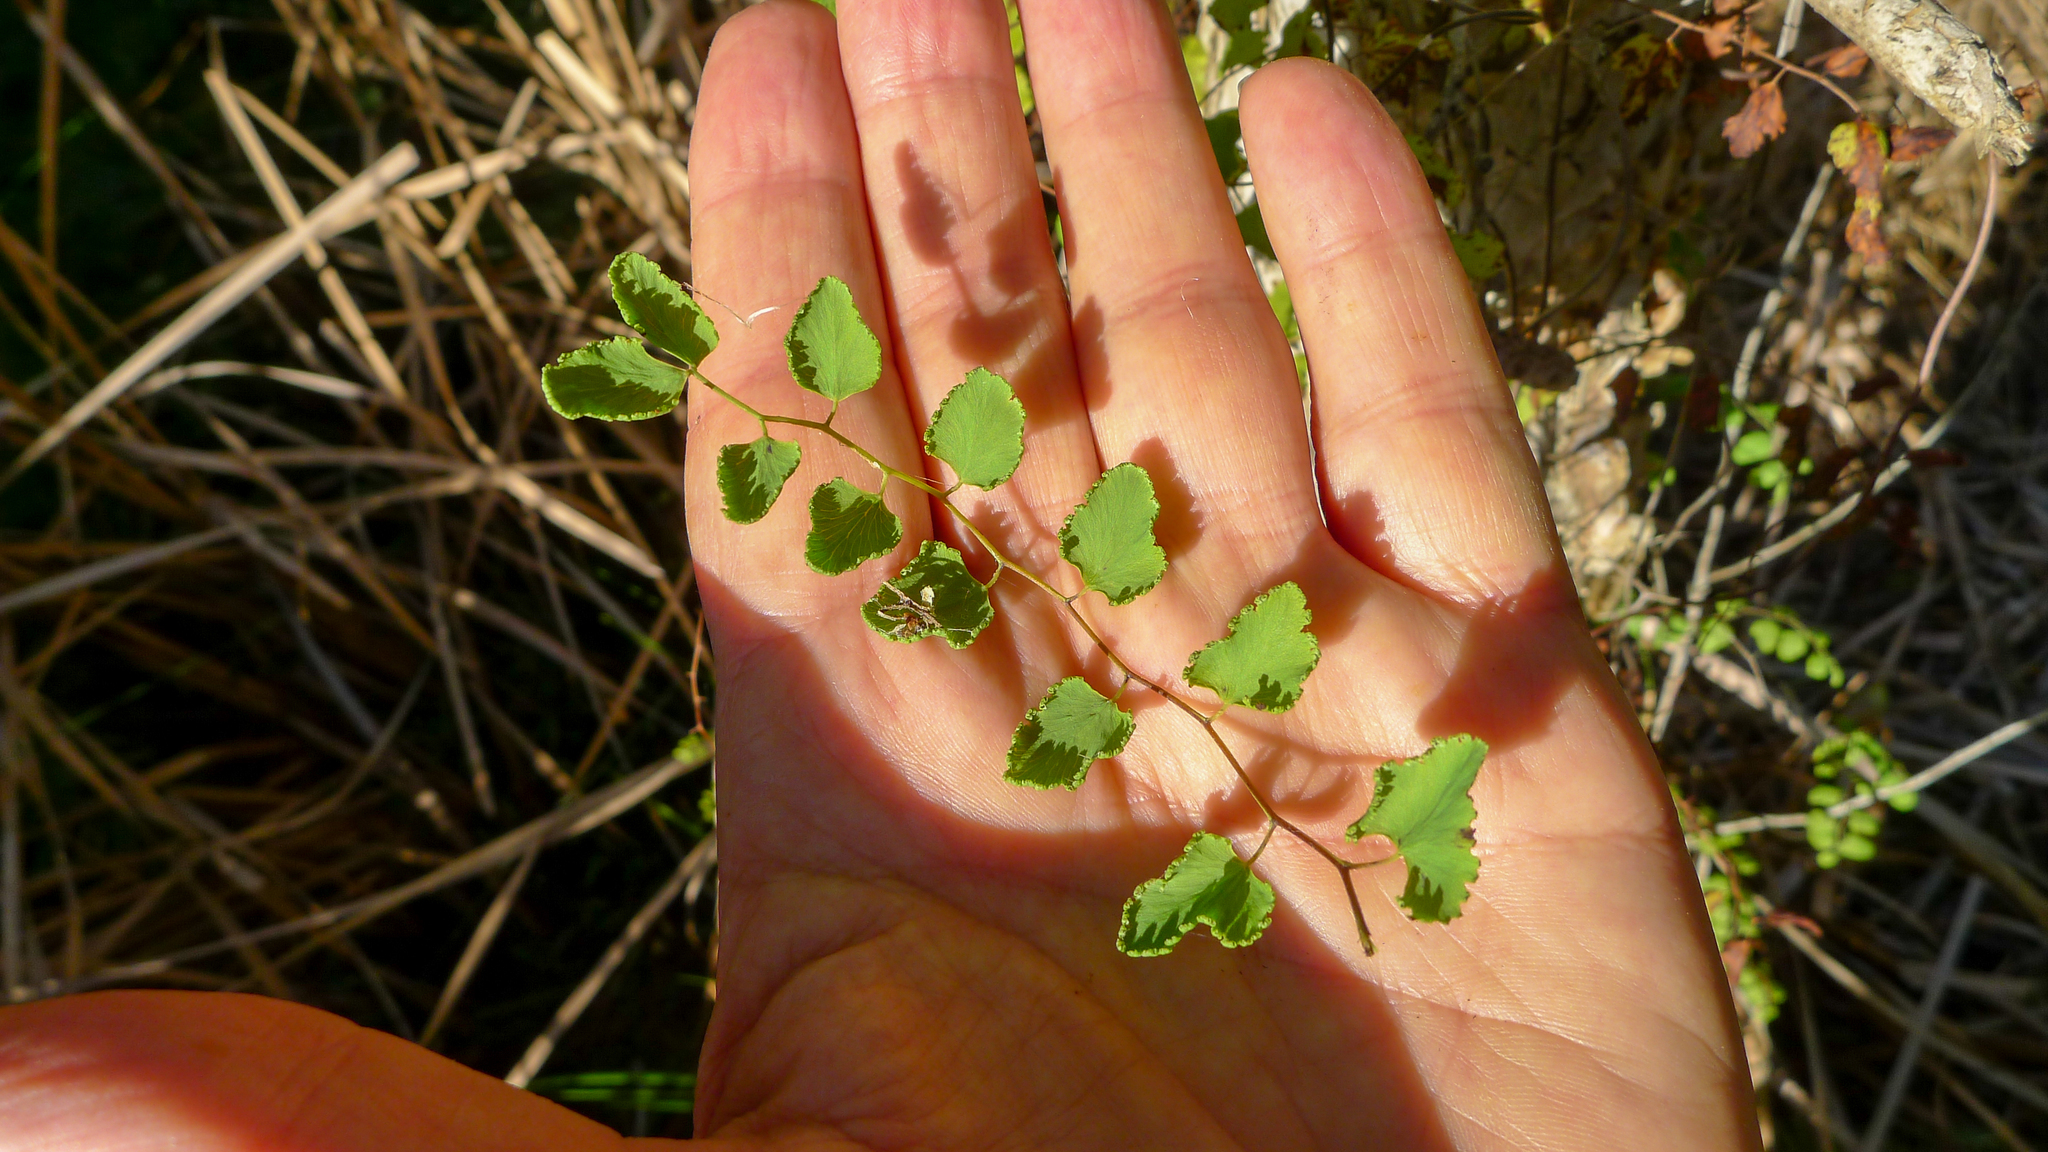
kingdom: Plantae
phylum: Tracheophyta
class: Polypodiopsida
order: Schizaeales
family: Lygodiaceae
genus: Lygodium
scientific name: Lygodium microphyllum
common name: Small-leaf climbing fern
